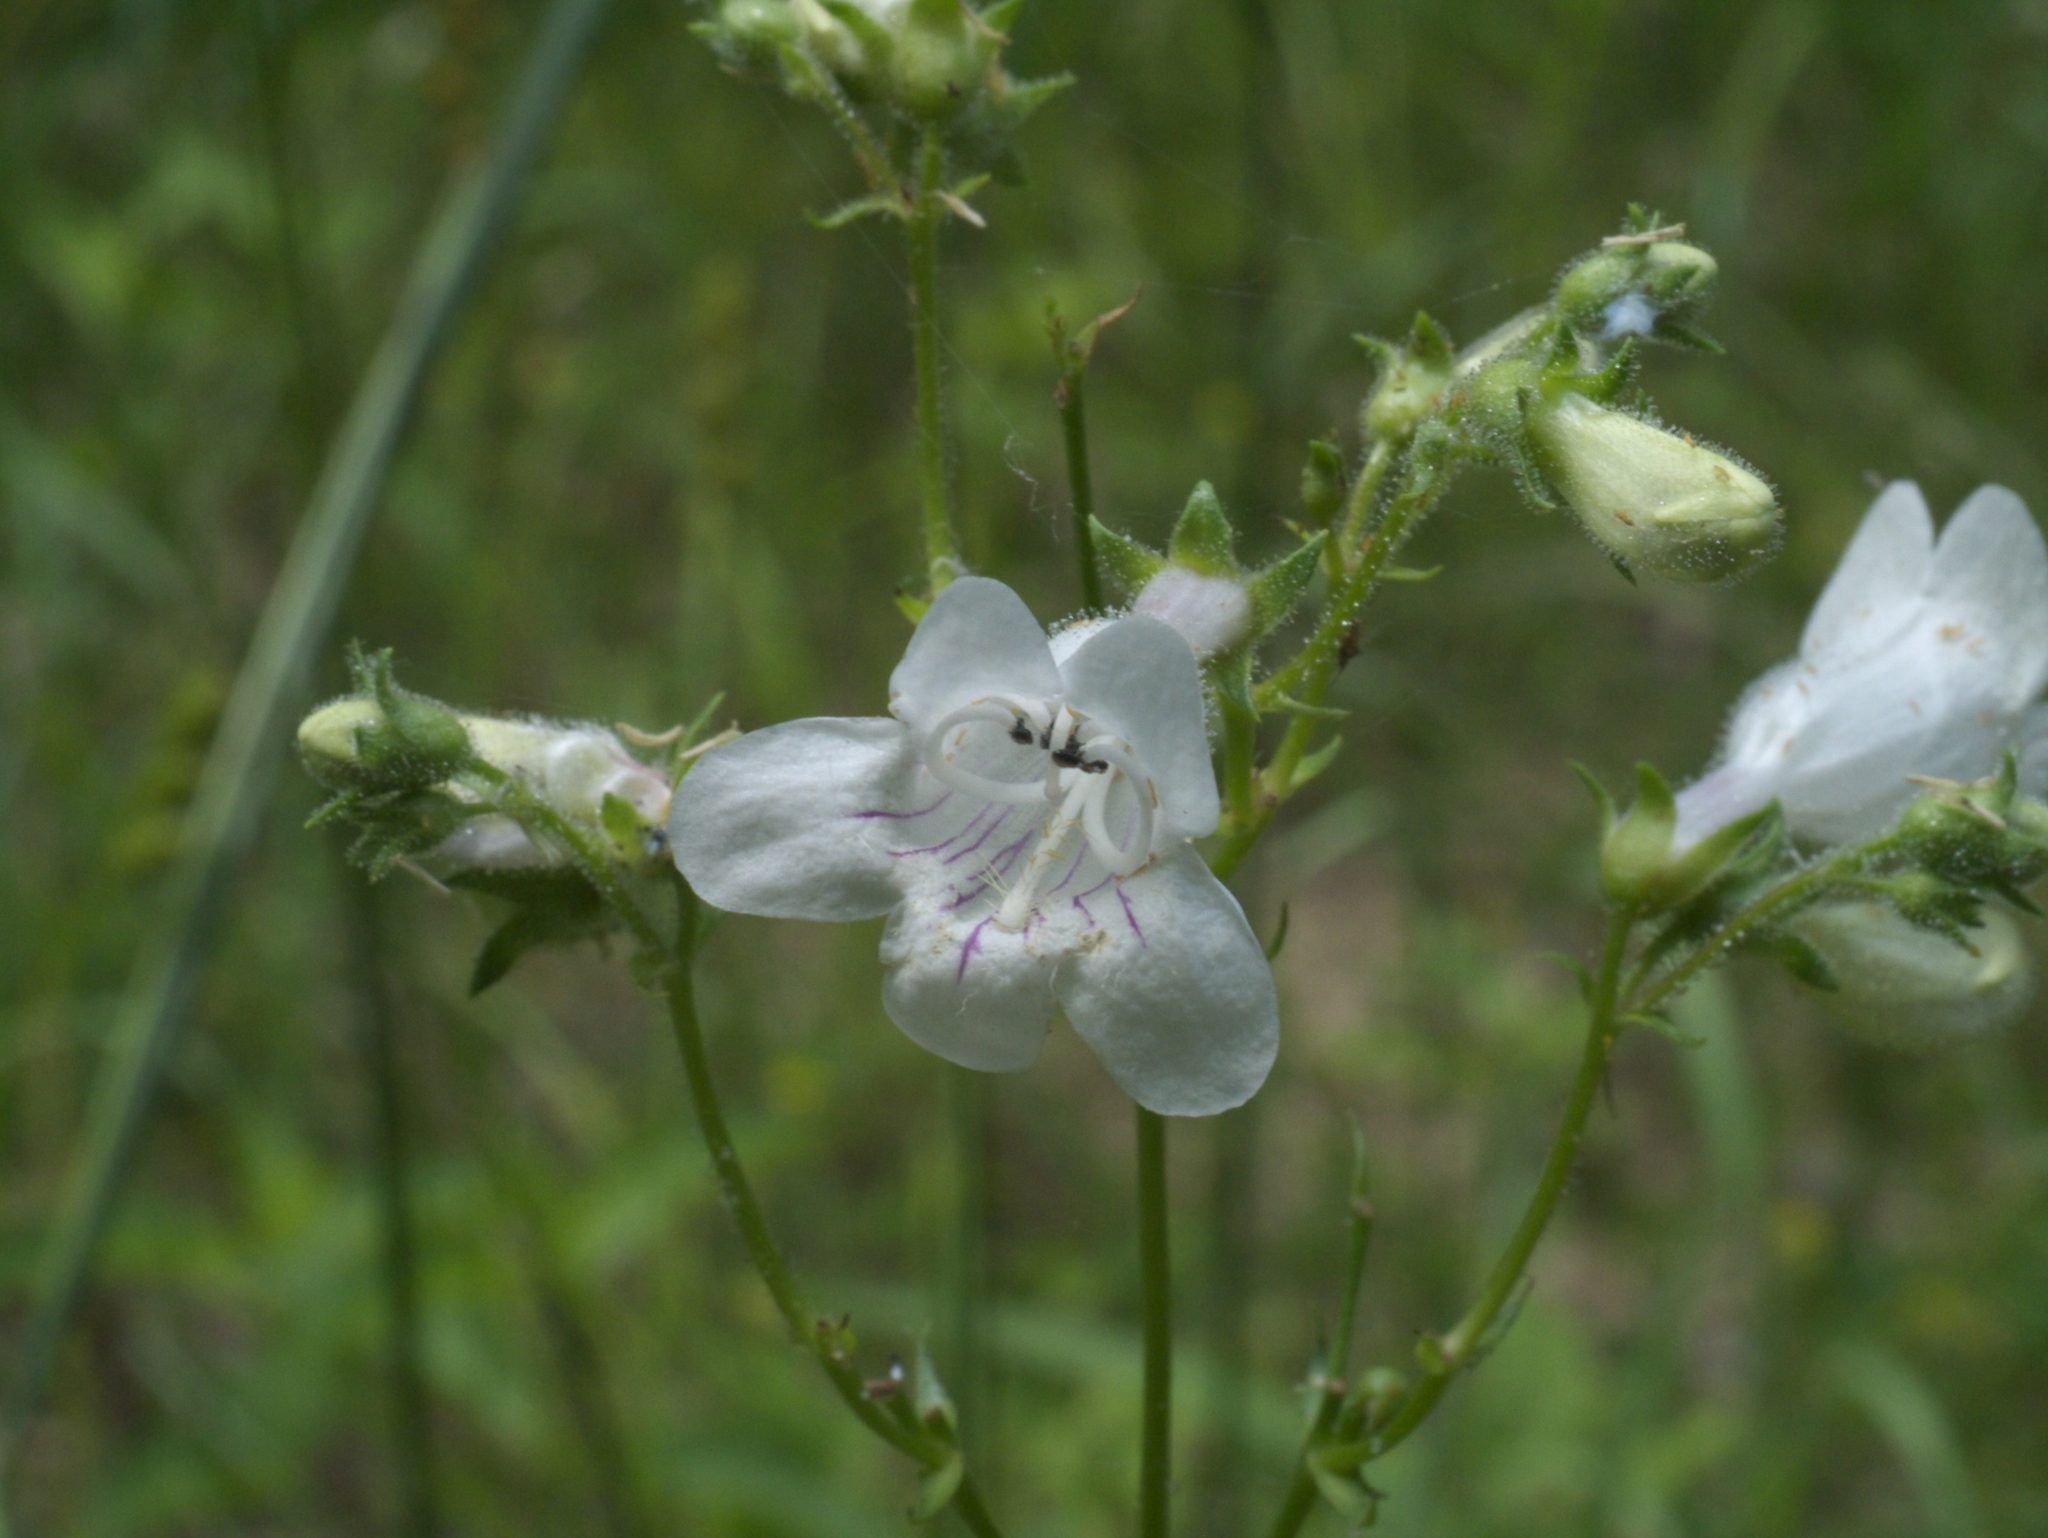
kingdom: Plantae
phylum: Tracheophyta
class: Magnoliopsida
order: Lamiales
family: Plantaginaceae
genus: Penstemon
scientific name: Penstemon digitalis
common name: Foxglove beardtongue
